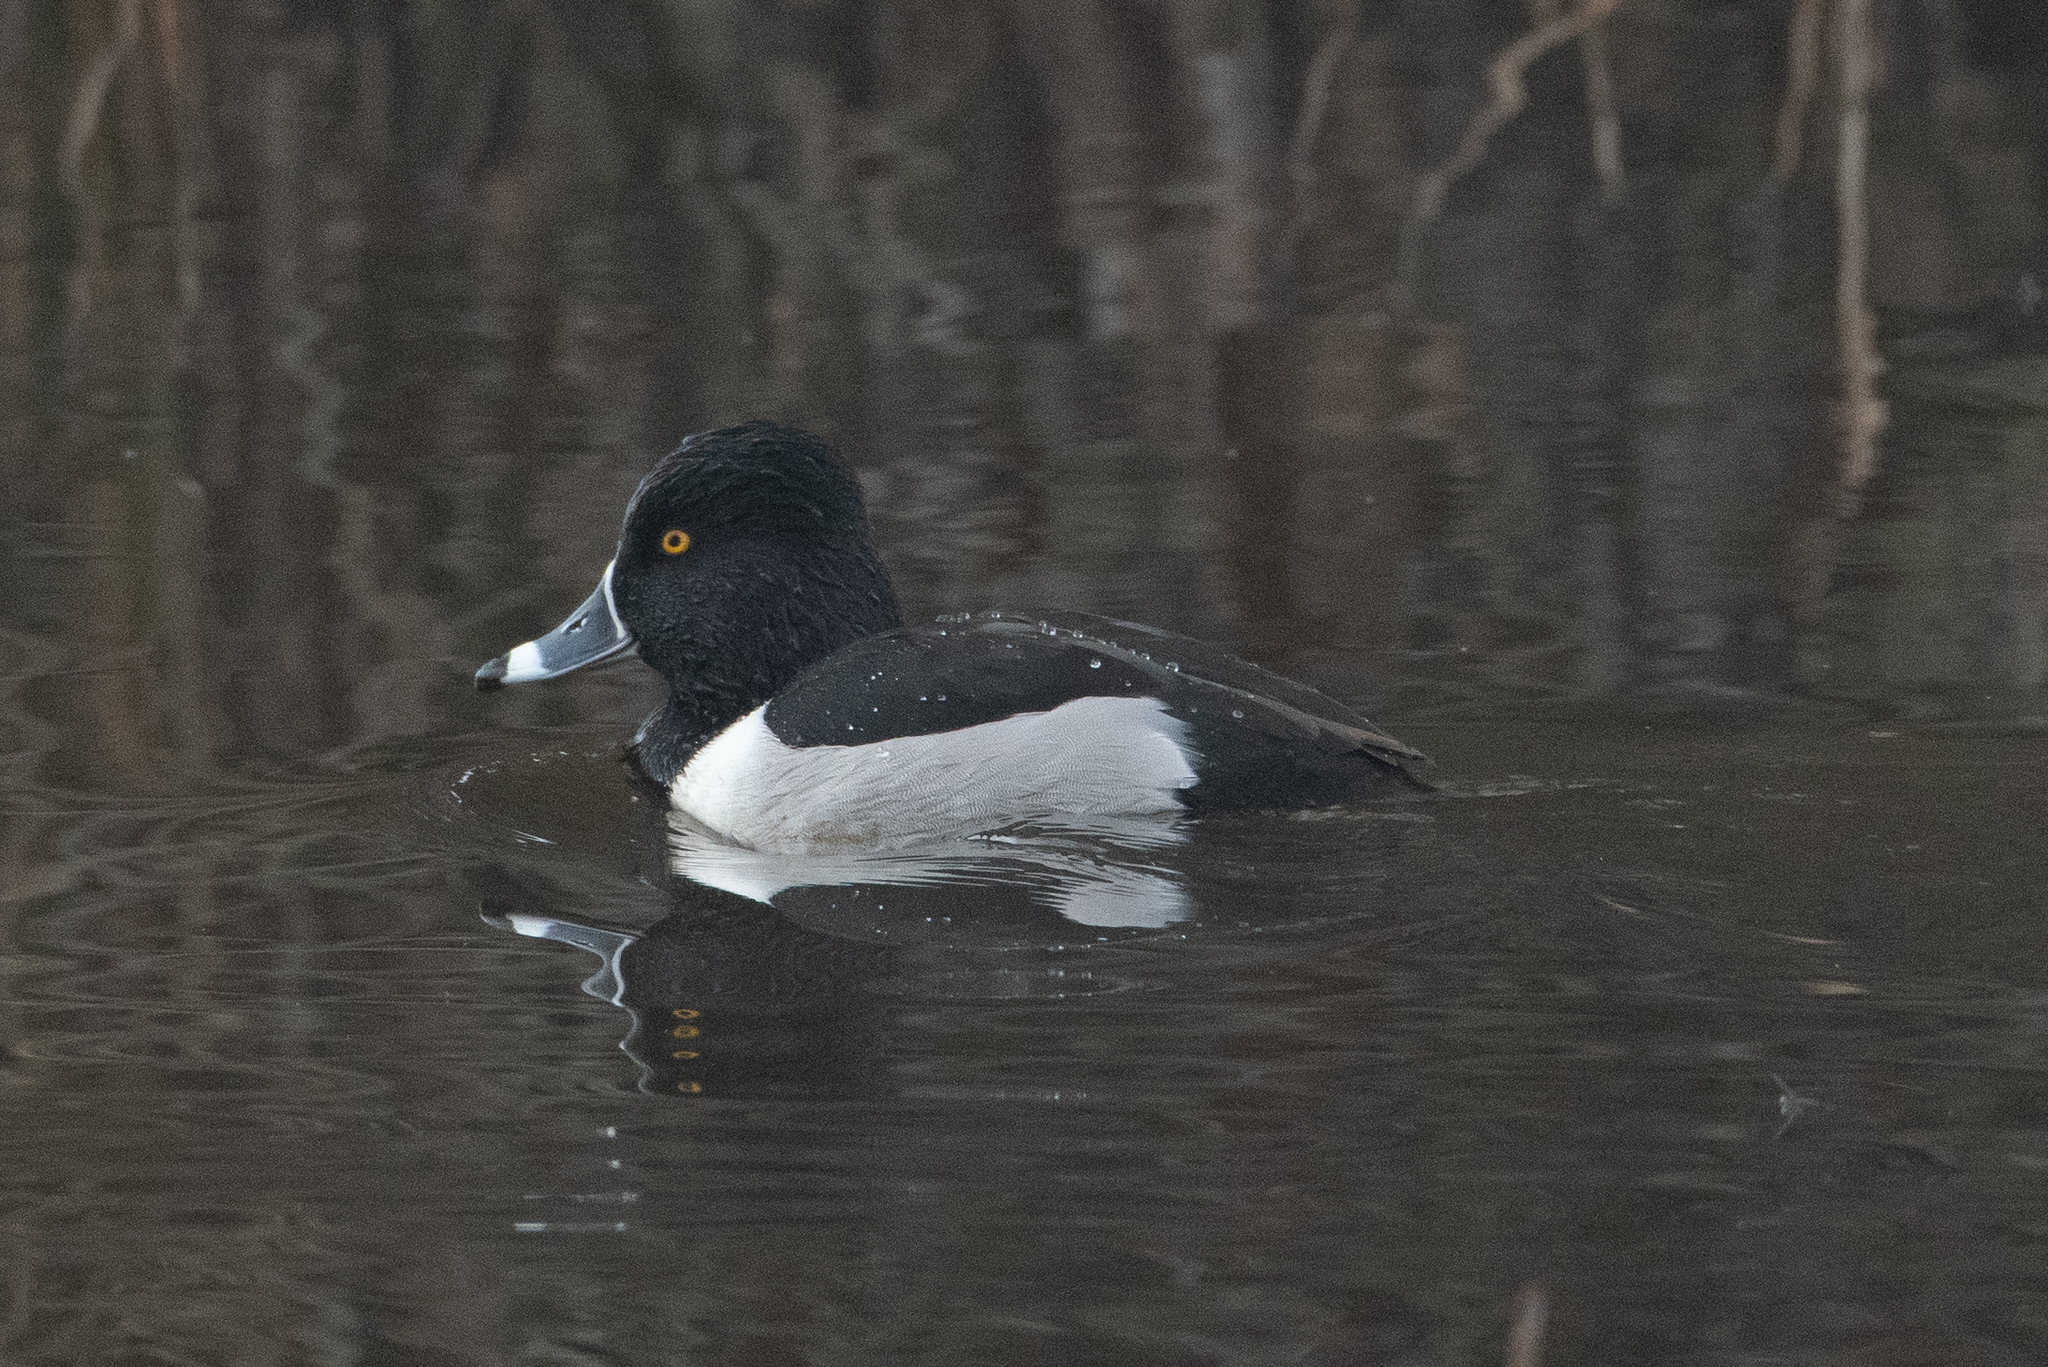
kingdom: Animalia
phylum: Chordata
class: Aves
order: Anseriformes
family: Anatidae
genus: Aythya
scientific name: Aythya collaris
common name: Ring-necked duck
